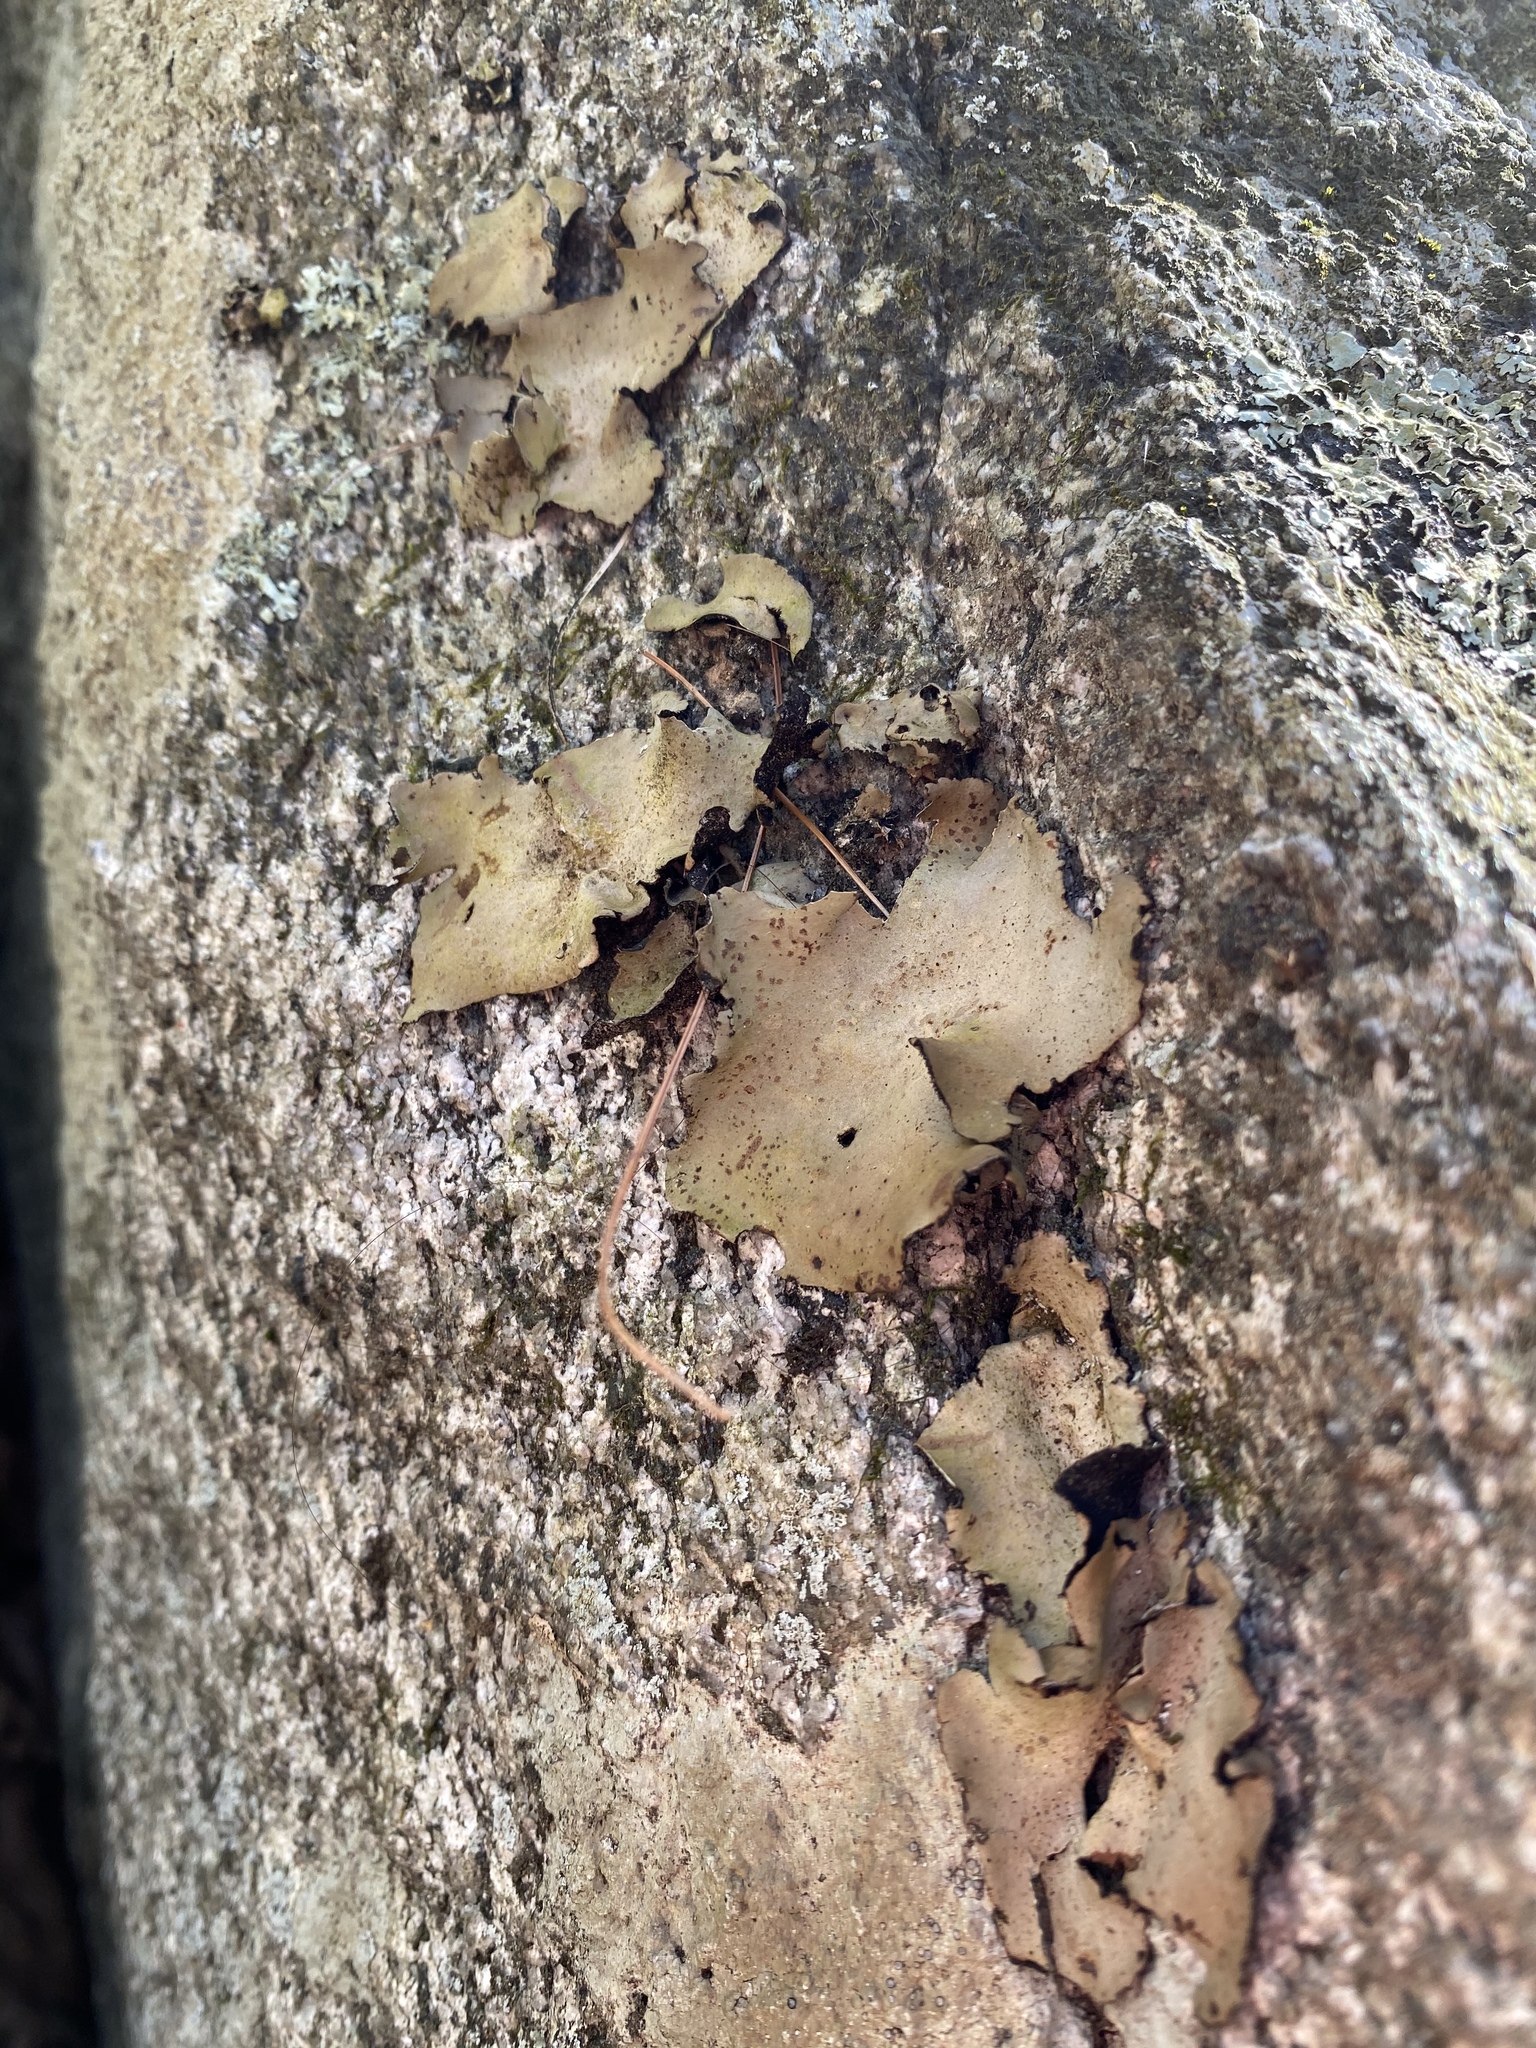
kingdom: Fungi
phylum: Ascomycota
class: Lecanoromycetes
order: Umbilicariales
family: Umbilicariaceae
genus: Umbilicaria
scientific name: Umbilicaria mammulata
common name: Smooth rock tripe
